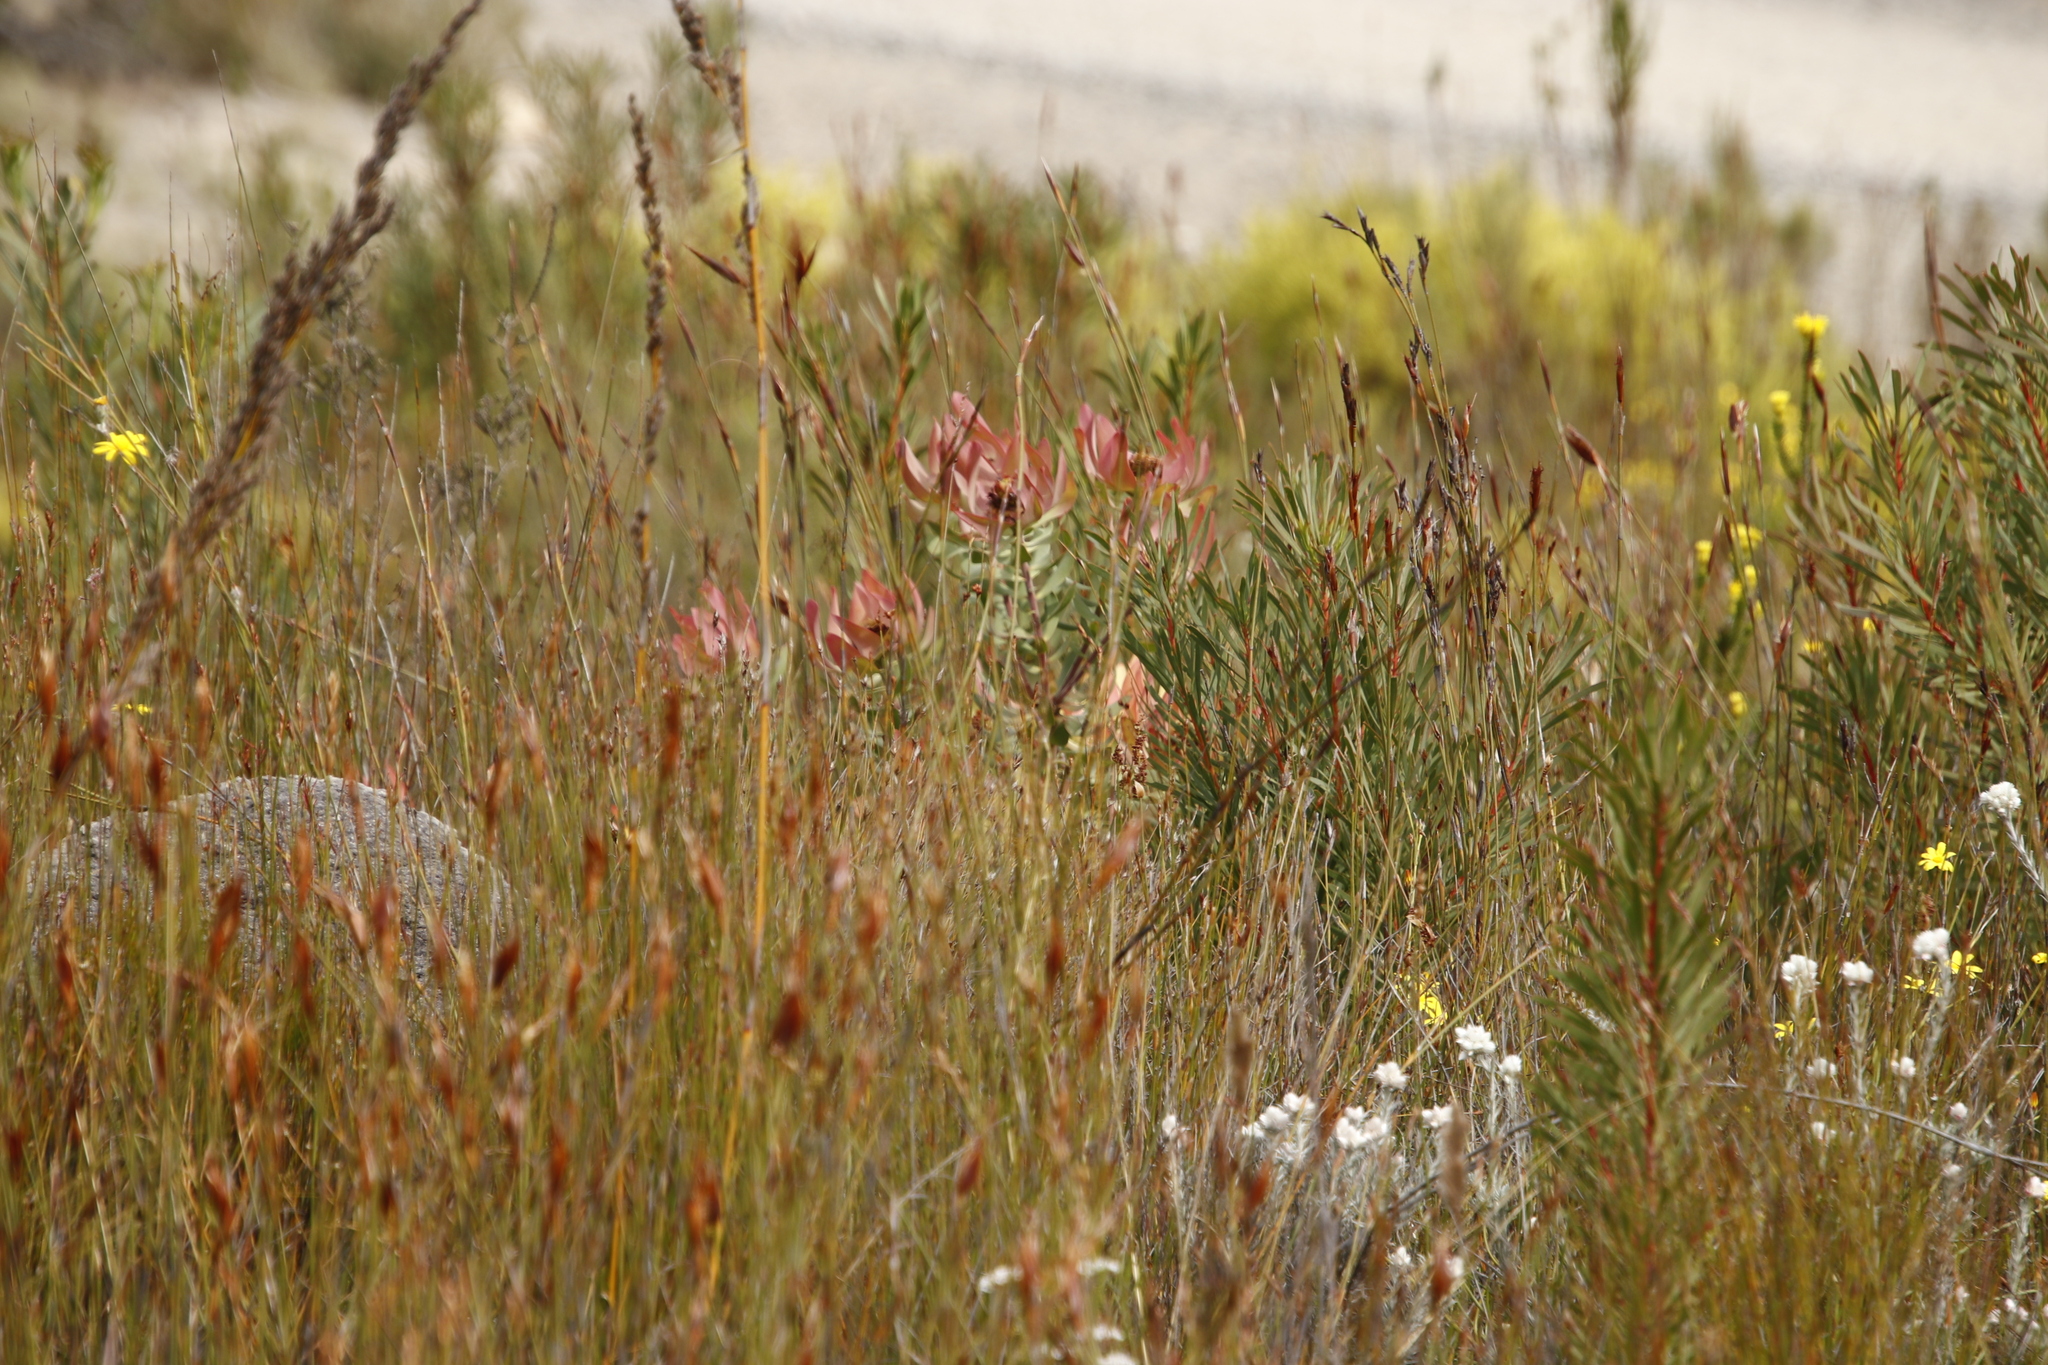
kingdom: Plantae
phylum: Tracheophyta
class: Magnoliopsida
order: Proteales
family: Proteaceae
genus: Leucadendron
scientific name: Leucadendron tinctum
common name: Spicy conebush
